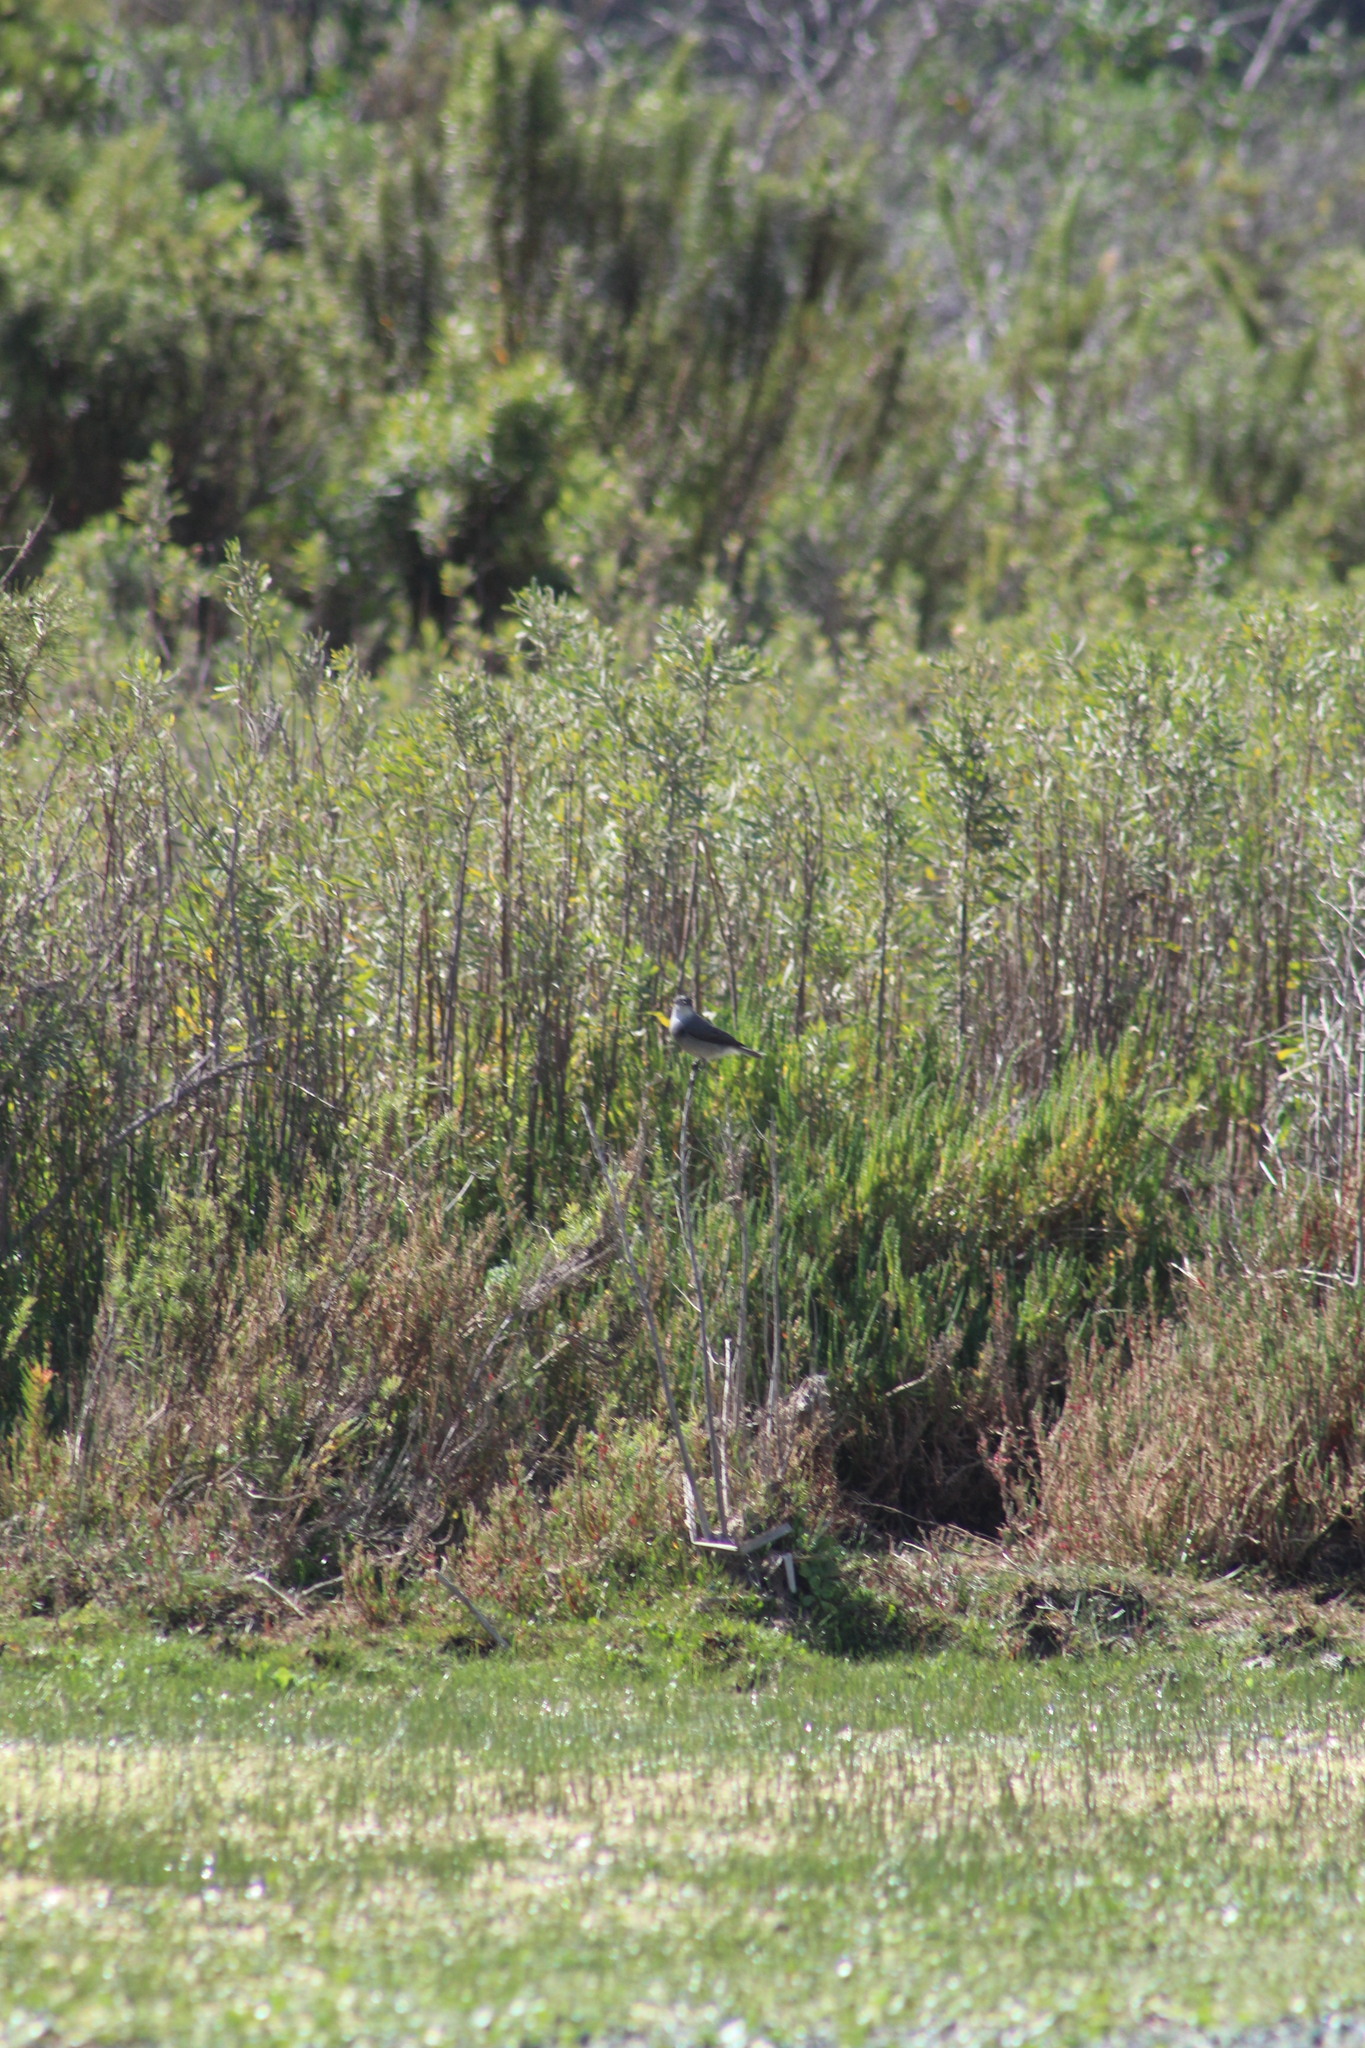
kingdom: Animalia
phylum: Chordata
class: Aves
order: Passeriformes
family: Tyrannidae
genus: Xolmis
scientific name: Xolmis pyrope
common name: Fire-eyed diucon
